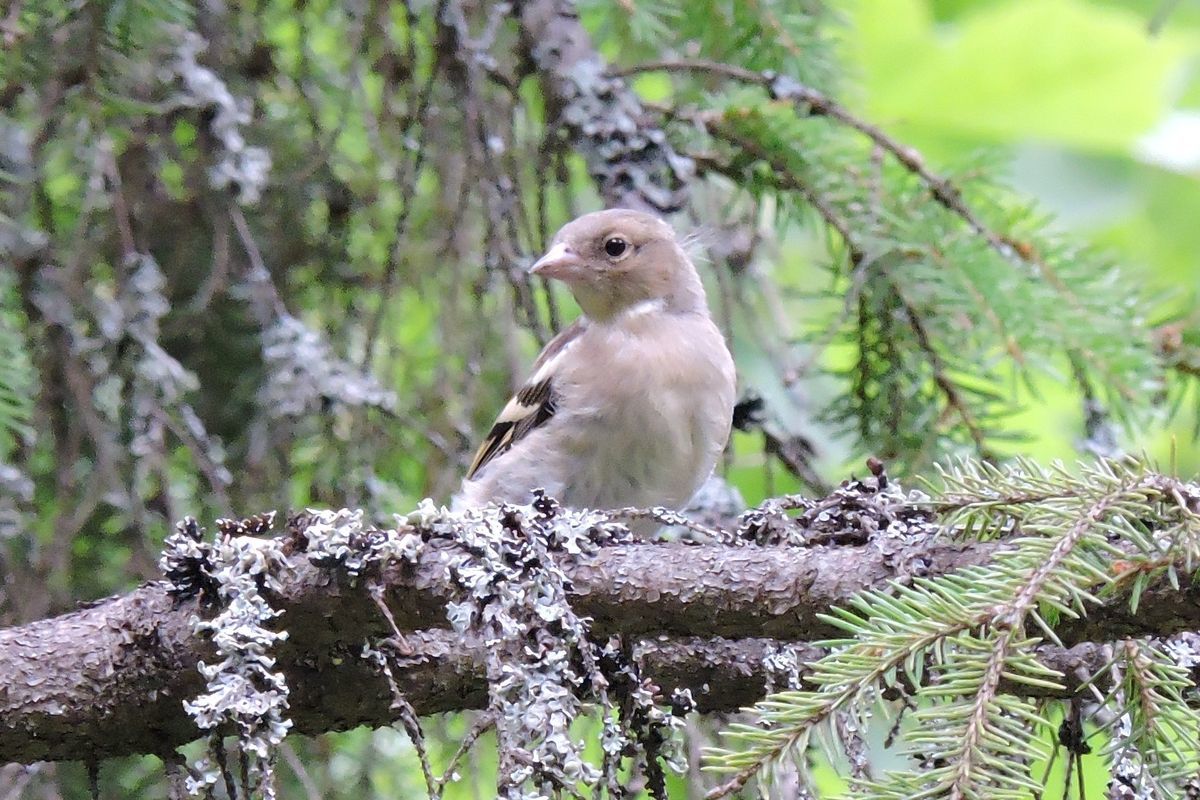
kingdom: Animalia
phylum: Chordata
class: Aves
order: Passeriformes
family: Fringillidae
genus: Fringilla
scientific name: Fringilla coelebs
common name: Common chaffinch
